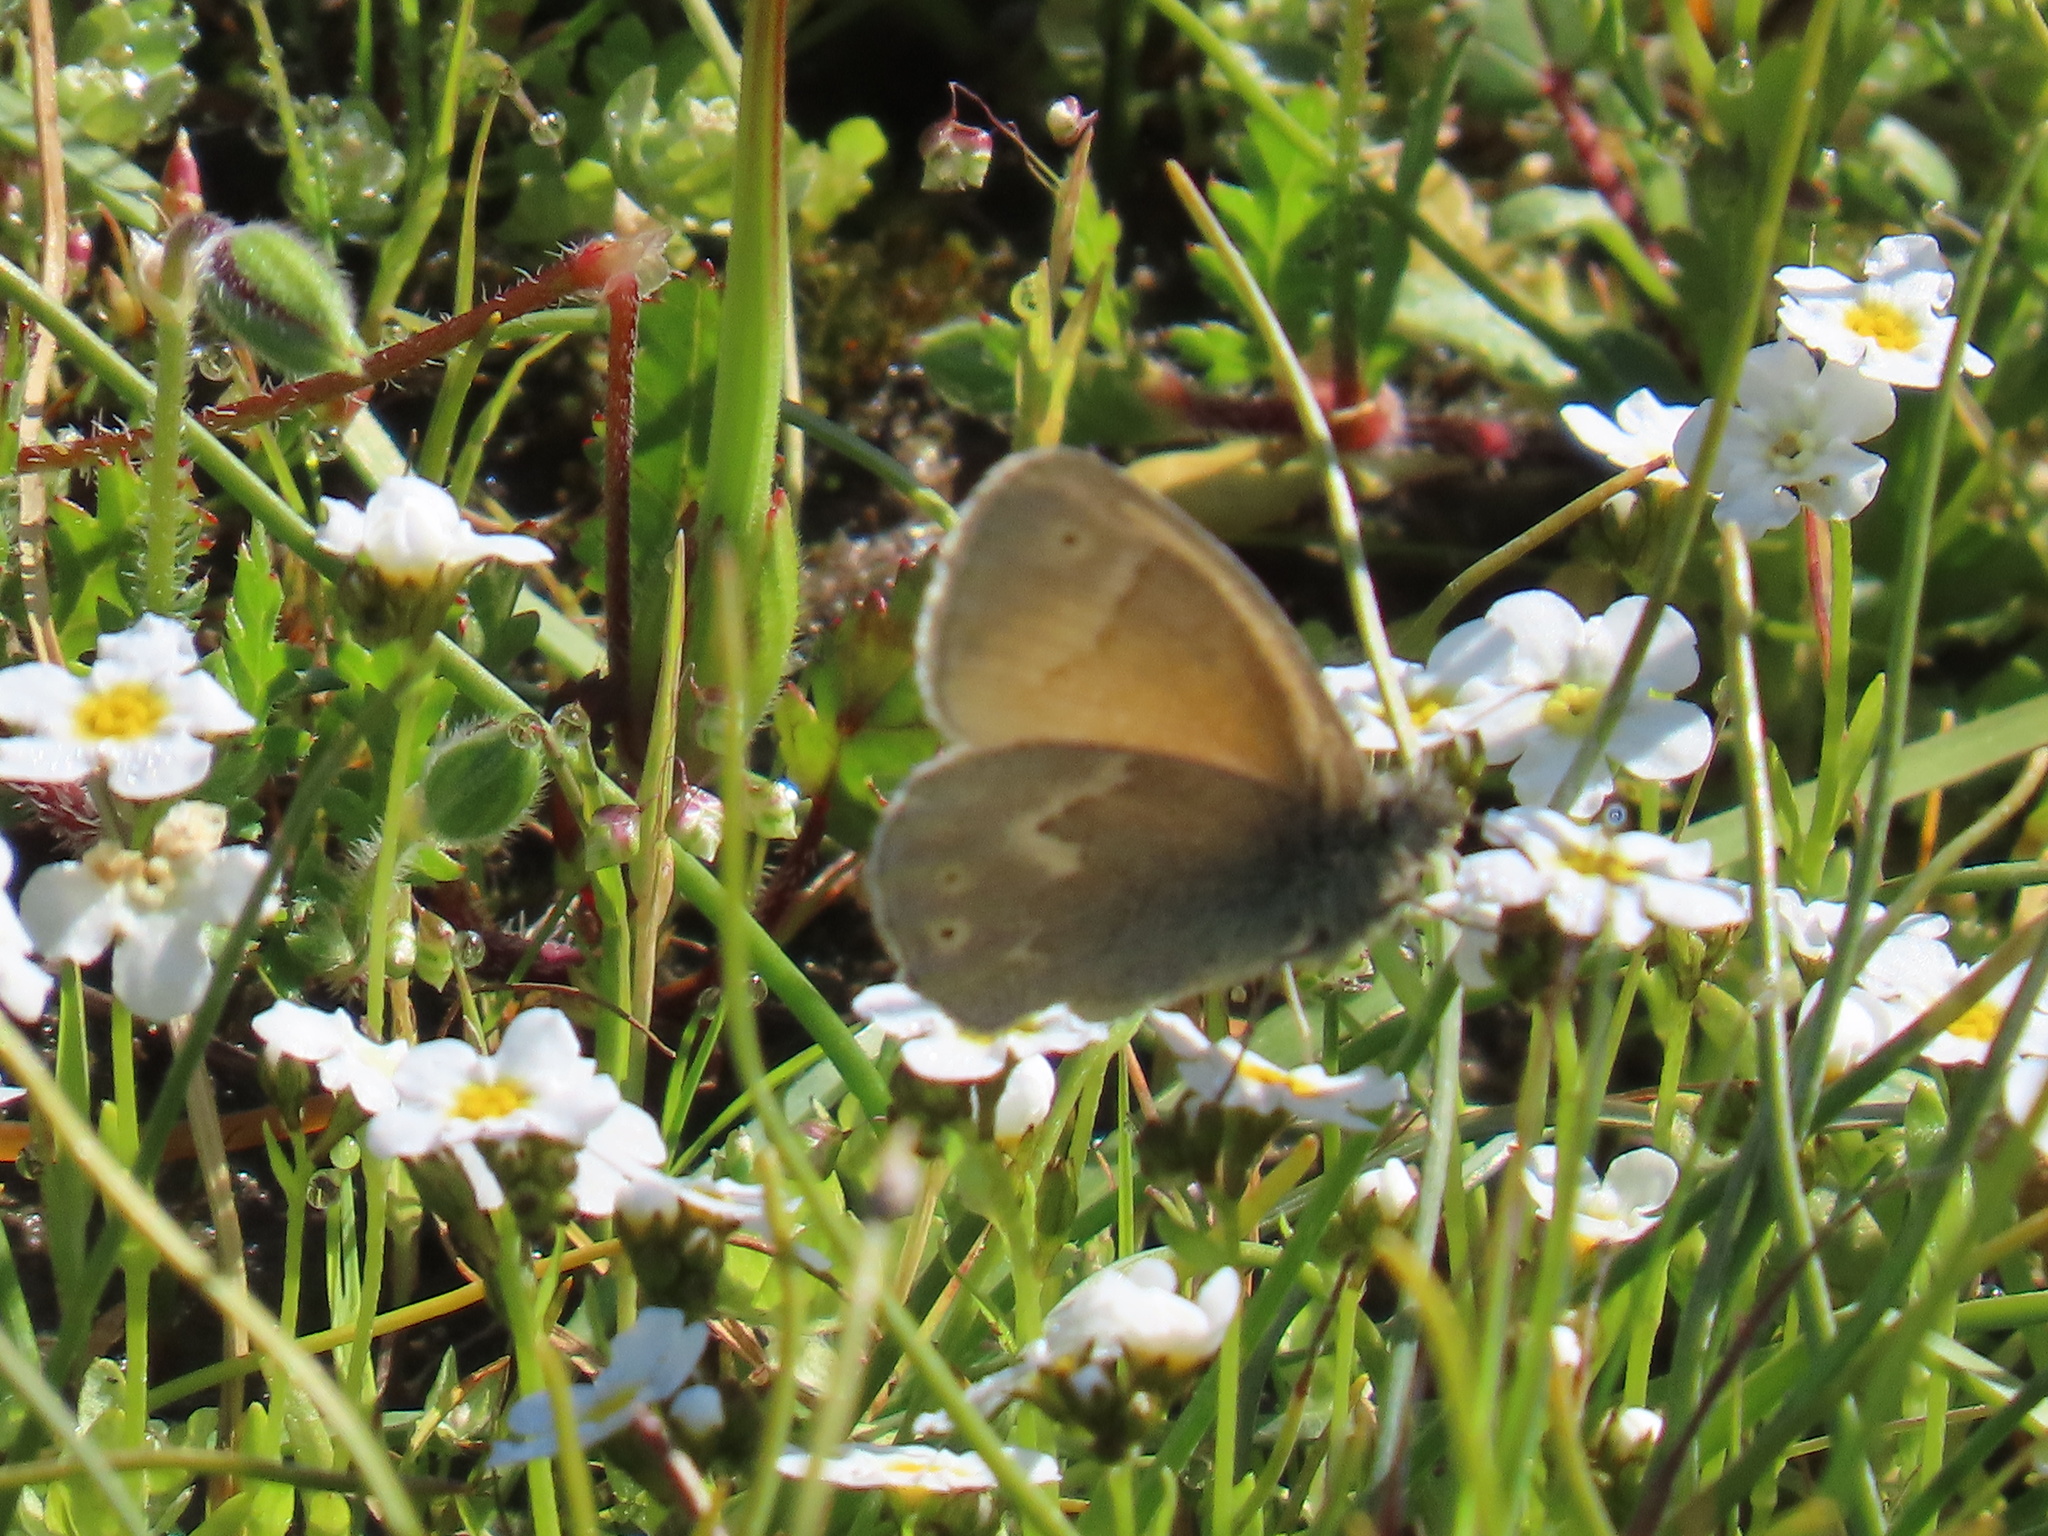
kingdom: Animalia
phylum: Arthropoda
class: Insecta
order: Lepidoptera
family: Nymphalidae
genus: Coenonympha
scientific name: Coenonympha california
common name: Common ringlet
